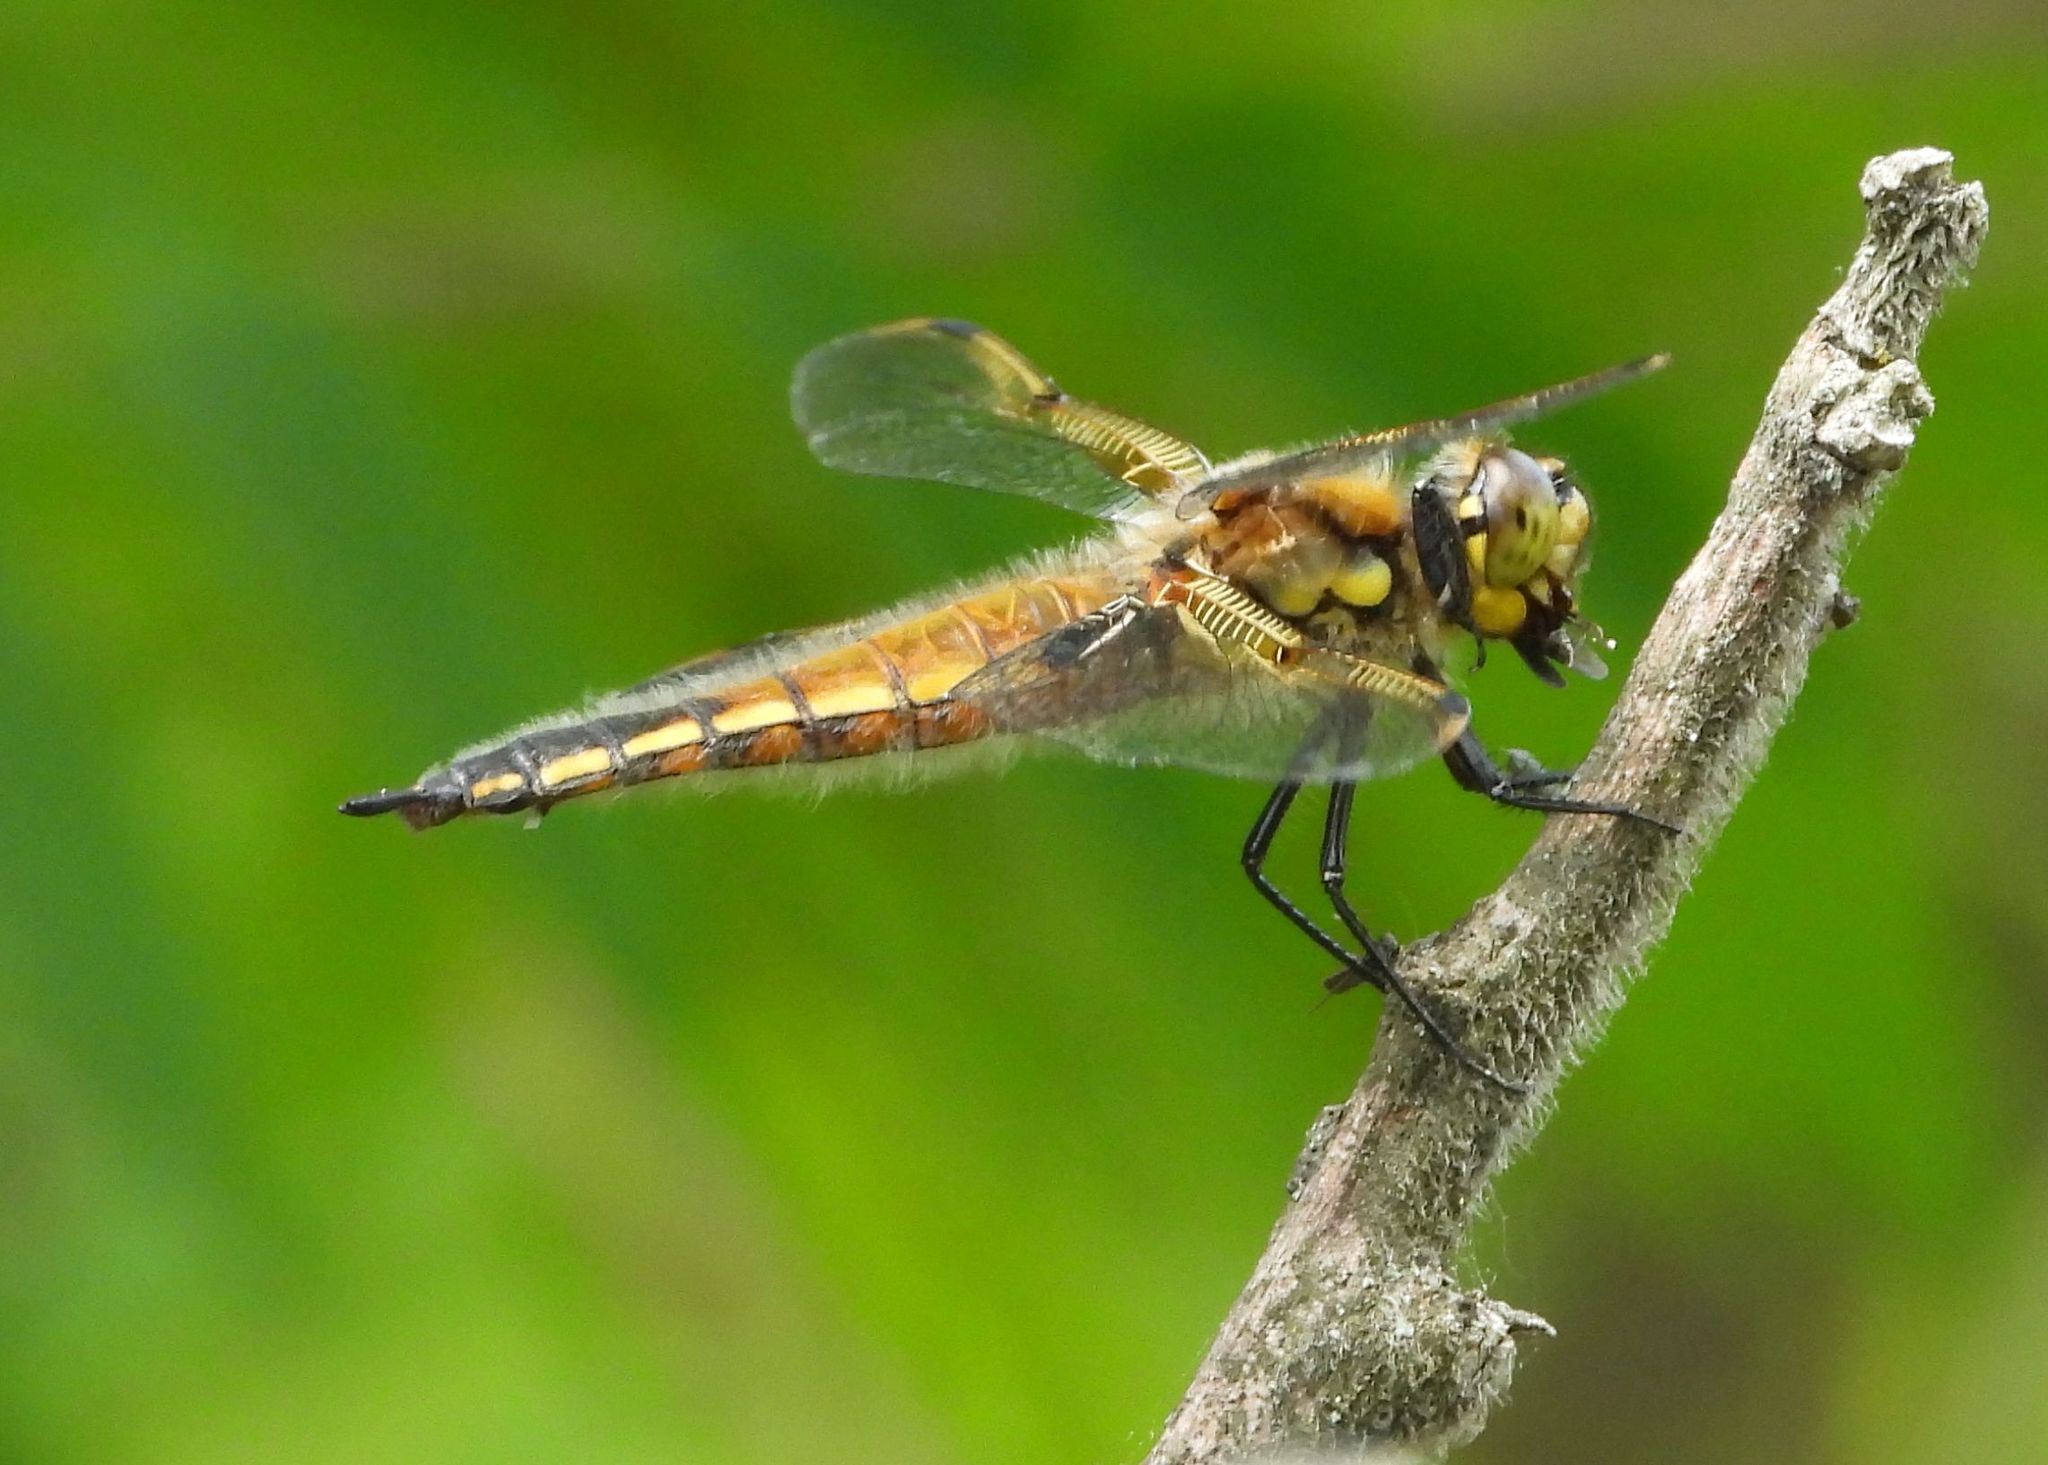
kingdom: Animalia
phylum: Arthropoda
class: Insecta
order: Odonata
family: Libellulidae
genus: Libellula
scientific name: Libellula quadrimaculata
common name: Four-spotted chaser
